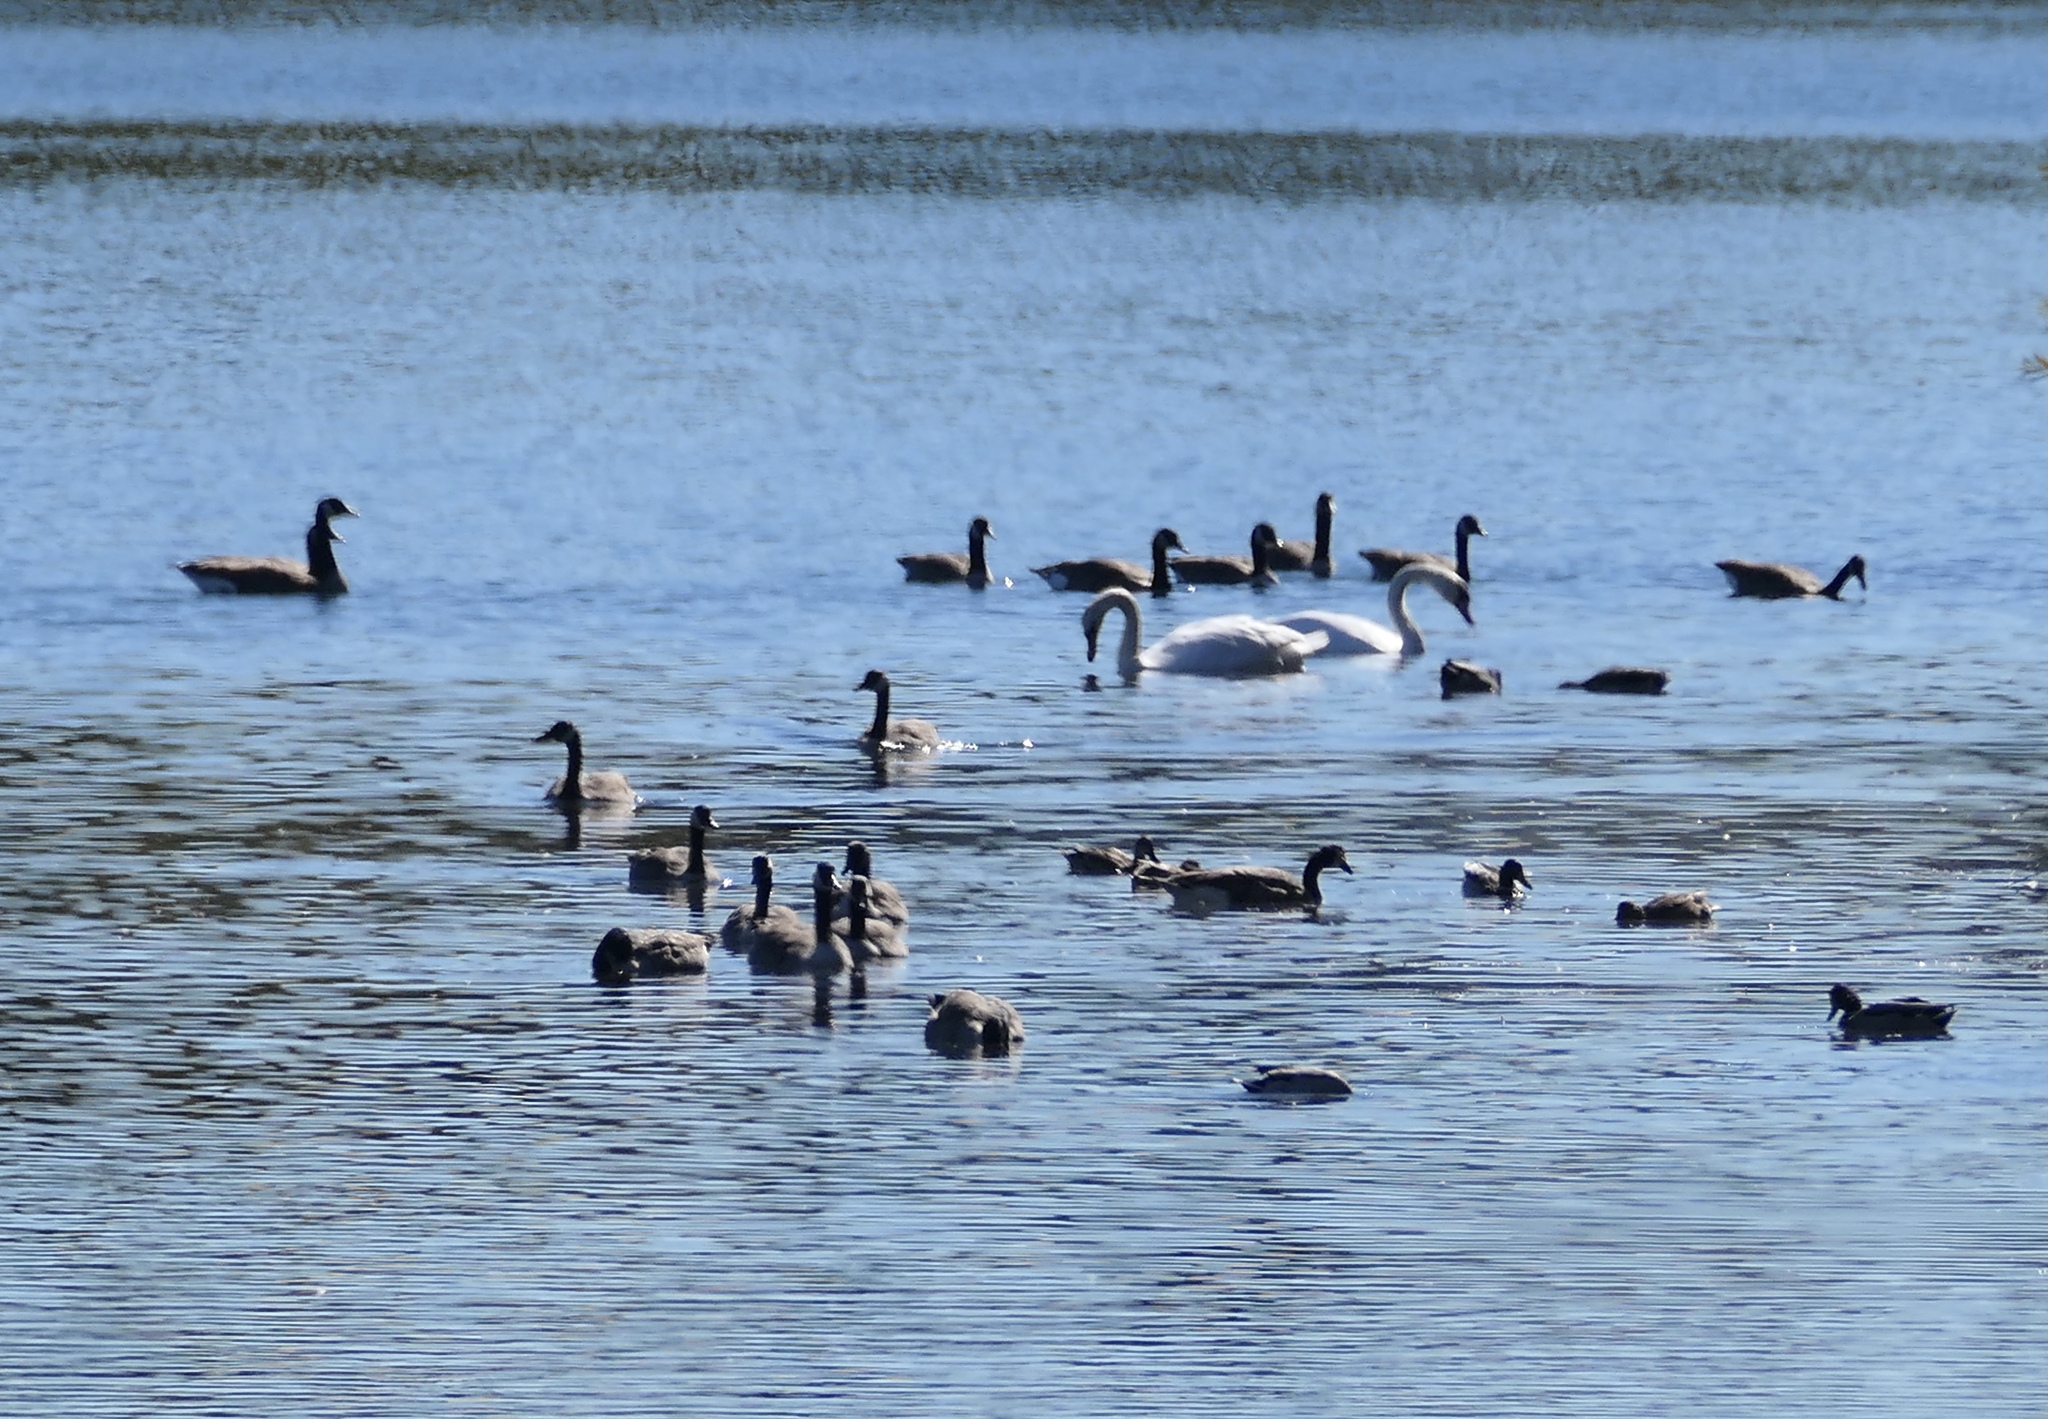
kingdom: Animalia
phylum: Chordata
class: Aves
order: Anseriformes
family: Anatidae
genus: Cygnus
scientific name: Cygnus olor
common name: Mute swan
